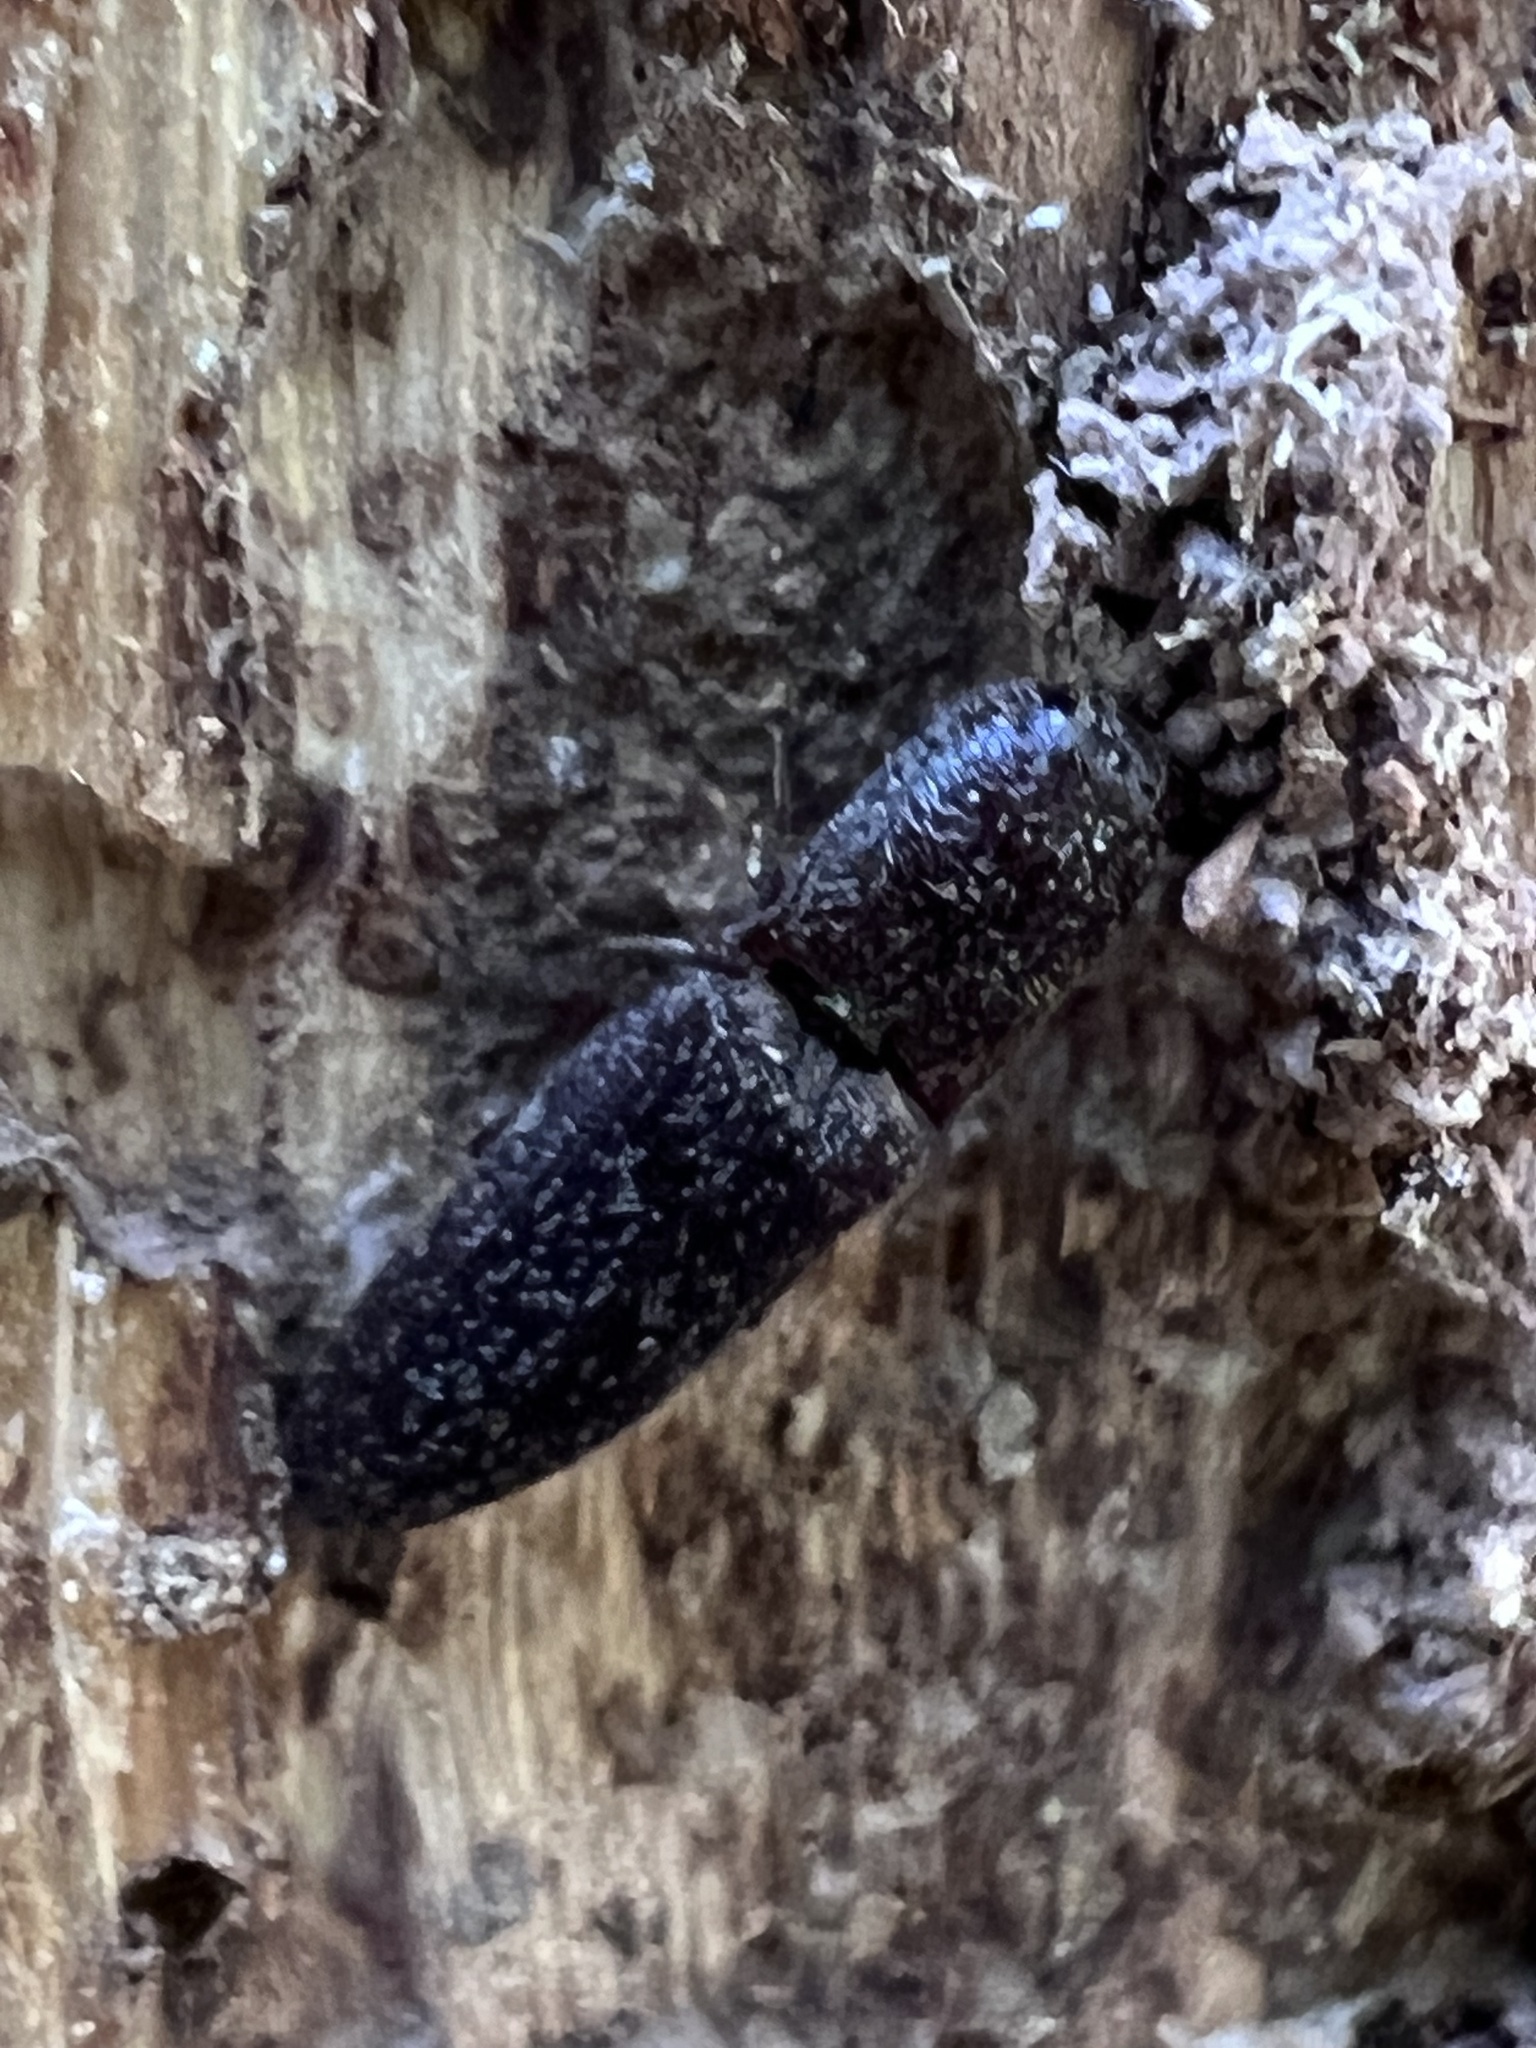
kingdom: Animalia
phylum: Arthropoda
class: Insecta
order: Coleoptera
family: Elateridae
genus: Lacon
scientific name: Lacon impressicollis
